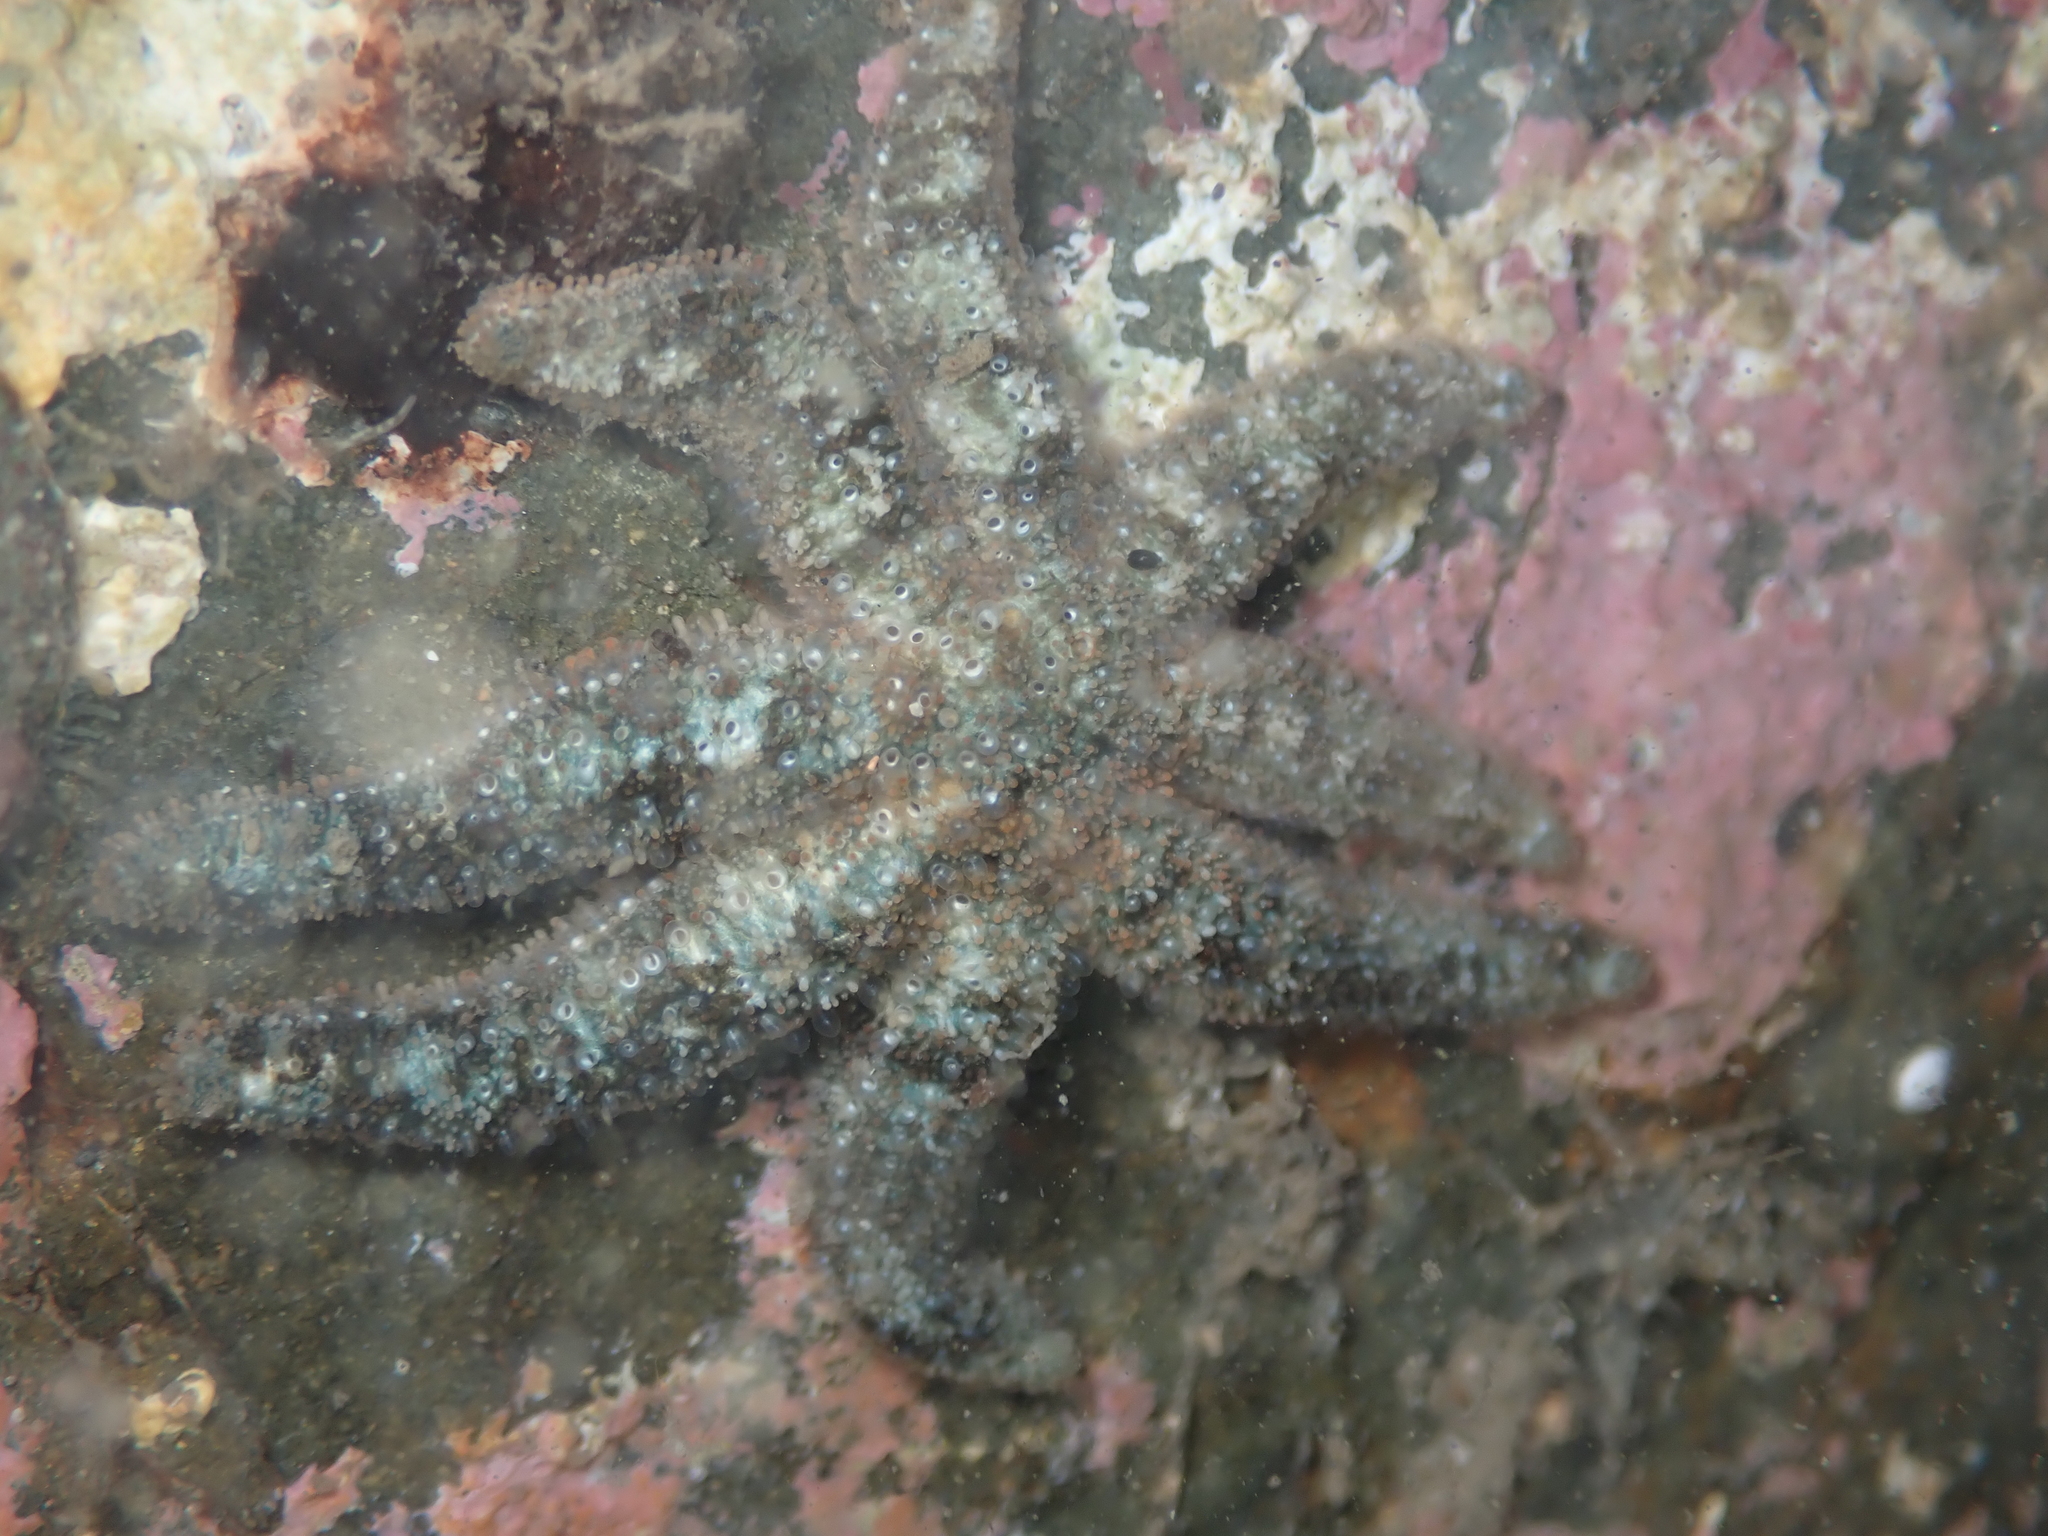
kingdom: Animalia
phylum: Echinodermata
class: Asteroidea
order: Forcipulatida
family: Stichasteridae
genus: Allostichaster
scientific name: Allostichaster polyplax
